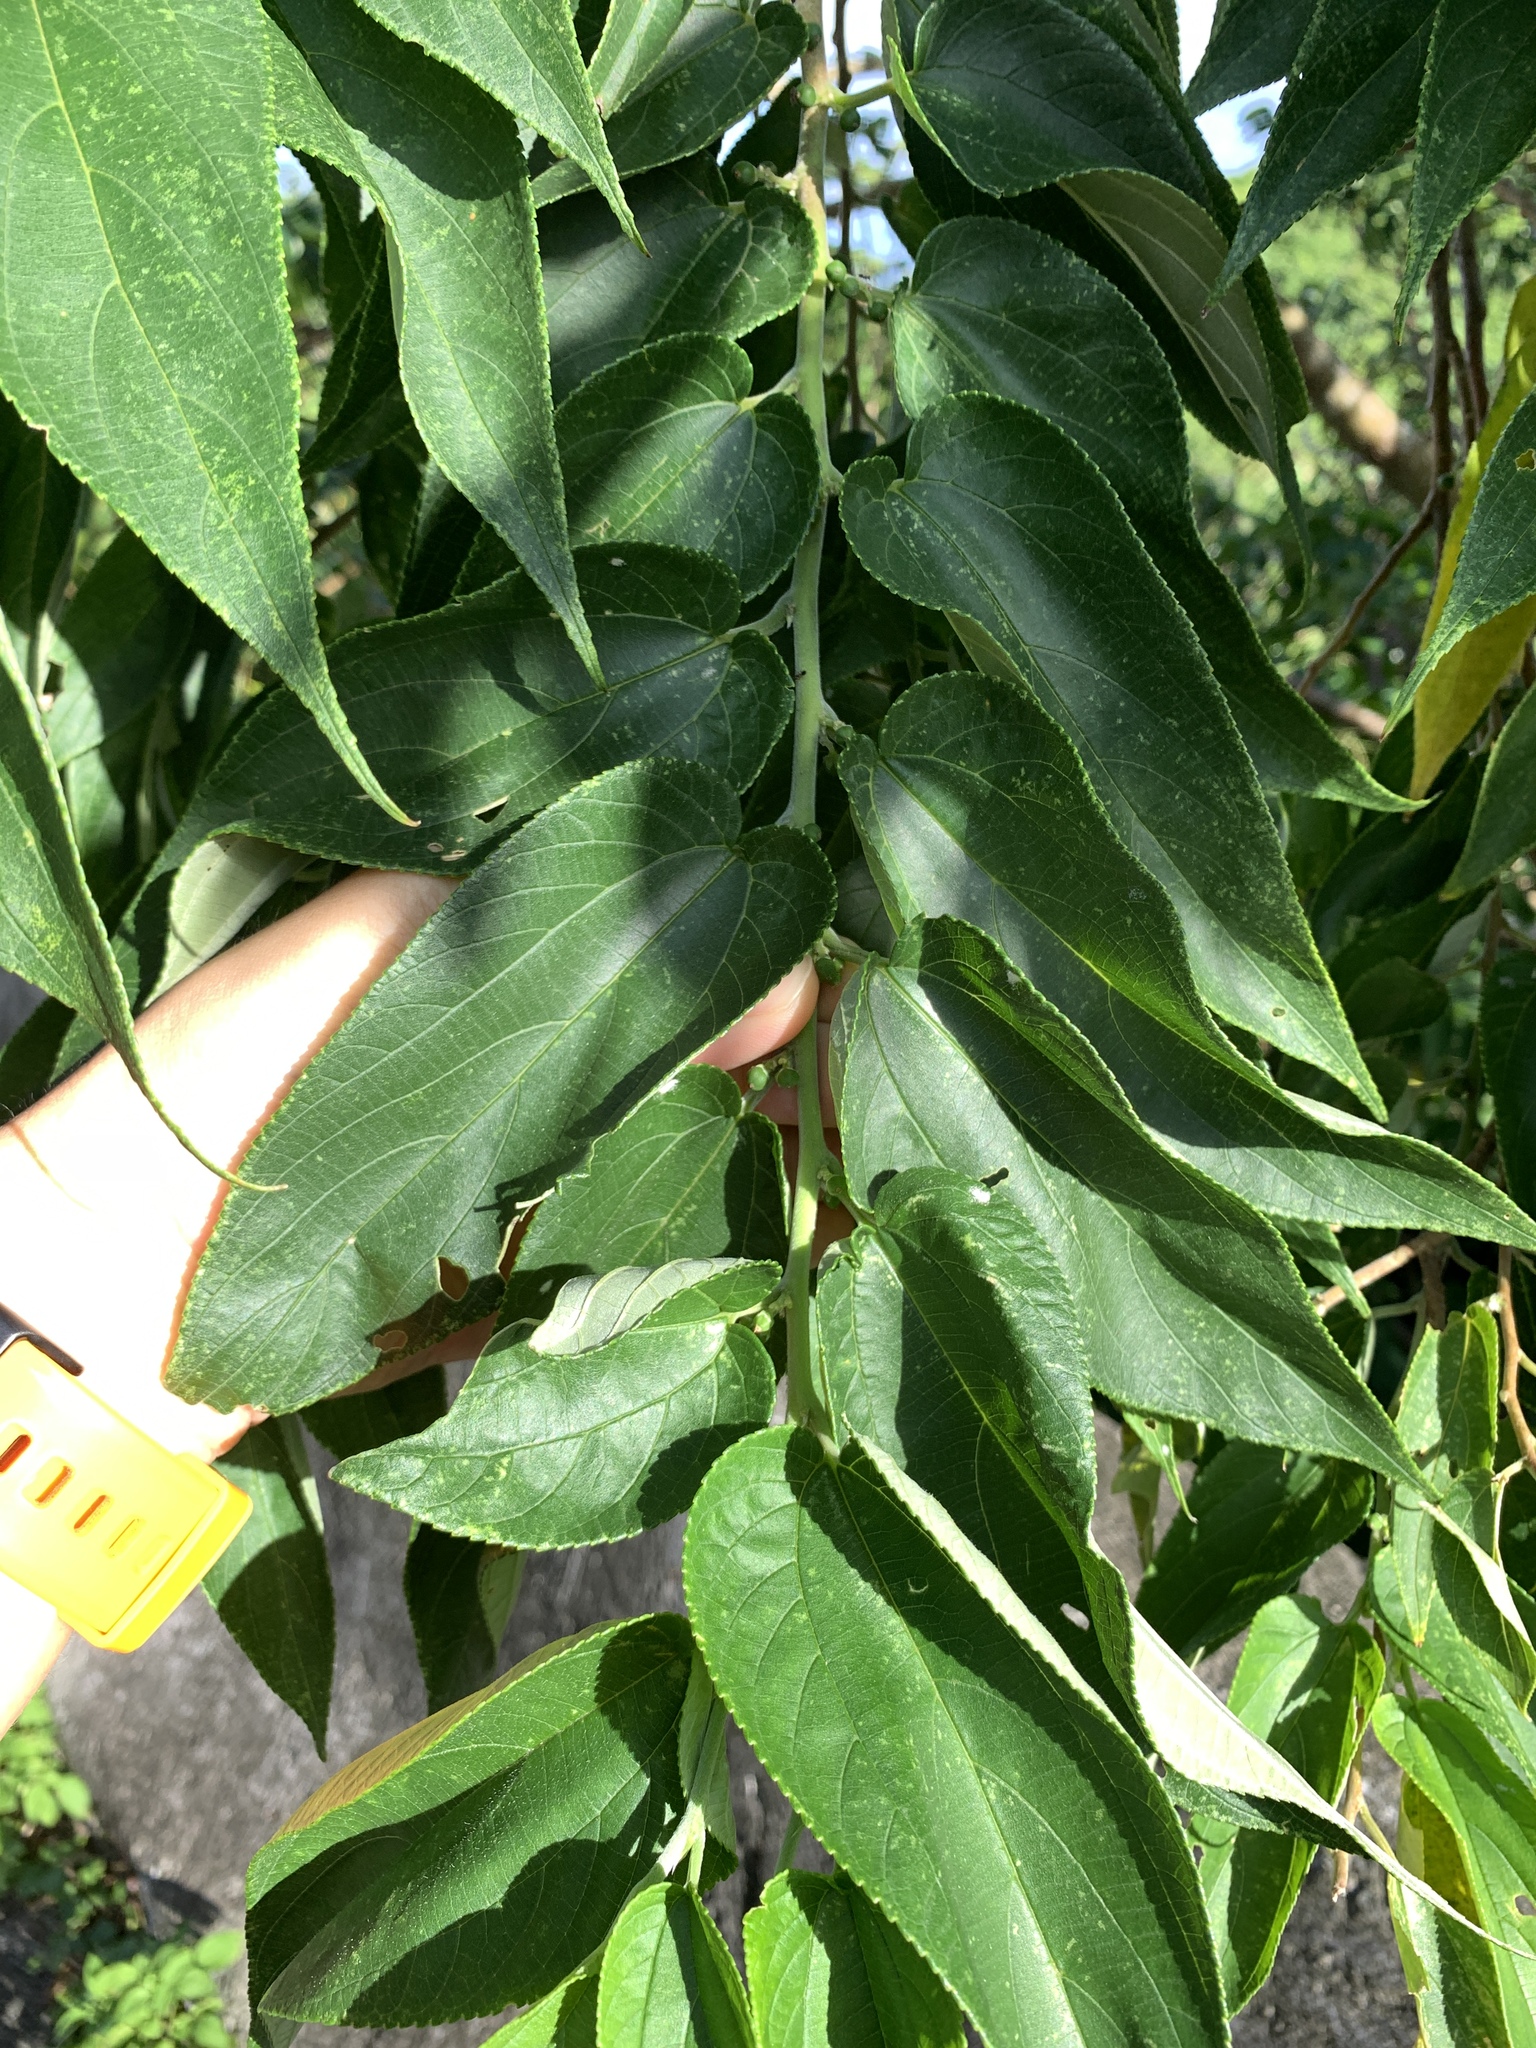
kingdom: Plantae
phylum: Tracheophyta
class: Magnoliopsida
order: Rosales
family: Cannabaceae
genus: Trema
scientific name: Trema orientale
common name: Indian charcoal tree
